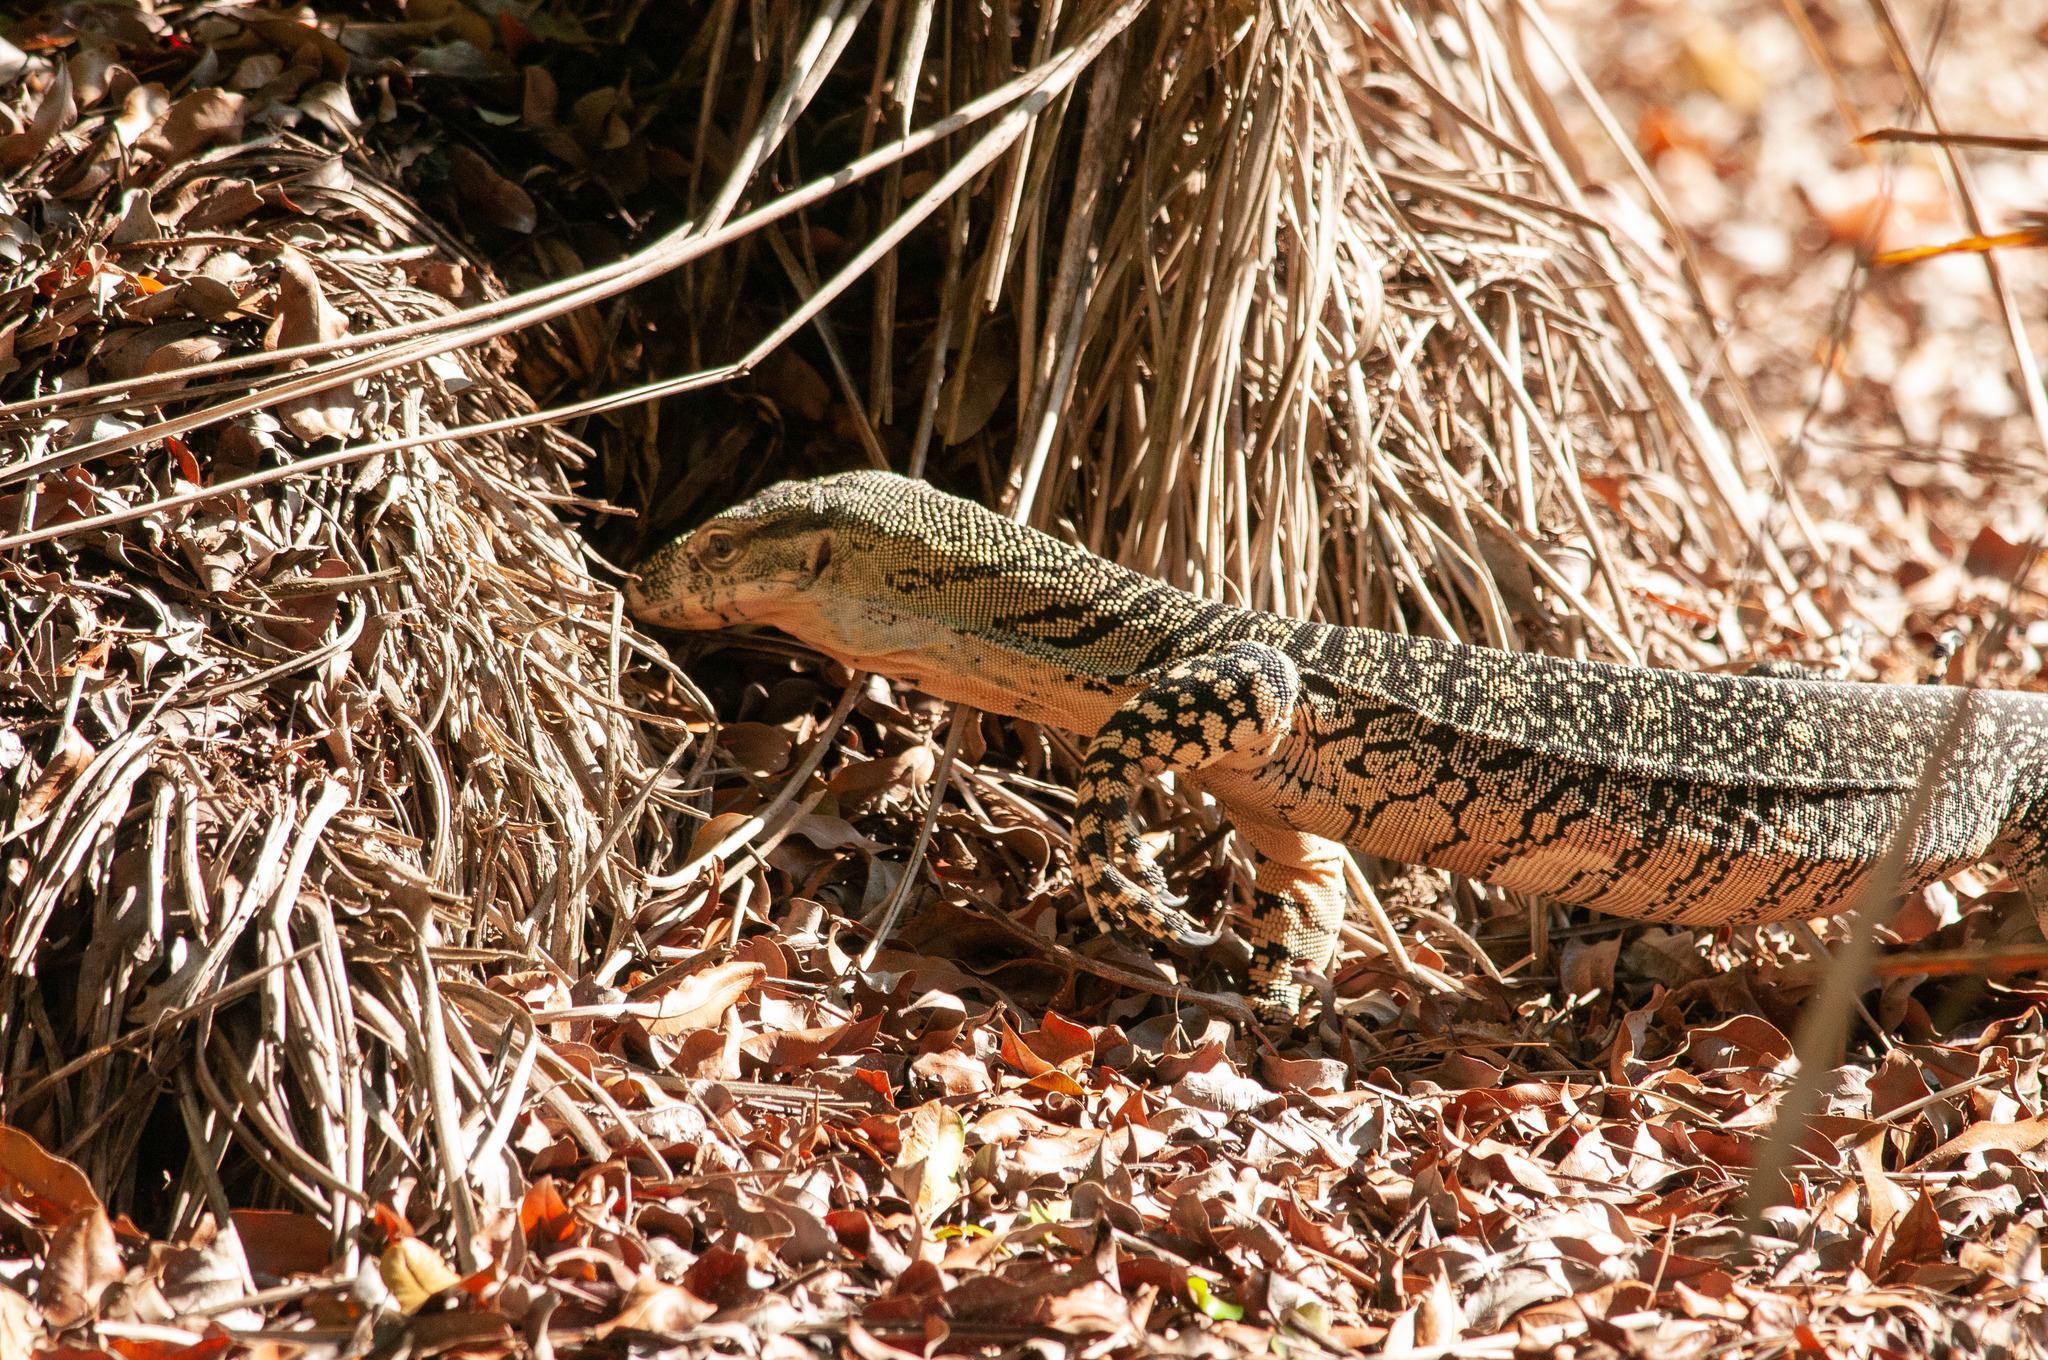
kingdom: Animalia
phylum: Chordata
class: Squamata
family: Varanidae
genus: Varanus
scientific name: Varanus varius
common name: Lace monitor
